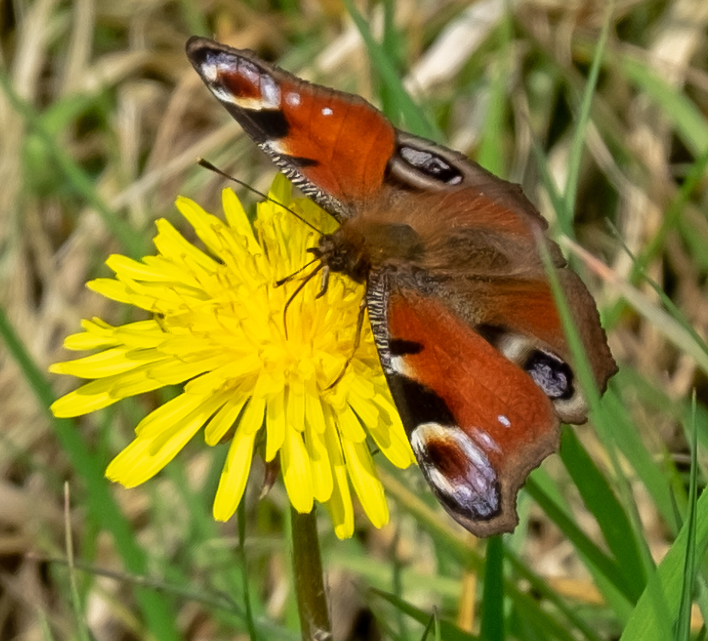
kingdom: Animalia
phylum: Arthropoda
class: Insecta
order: Lepidoptera
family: Nymphalidae
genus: Aglais
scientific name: Aglais io
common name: Peacock
